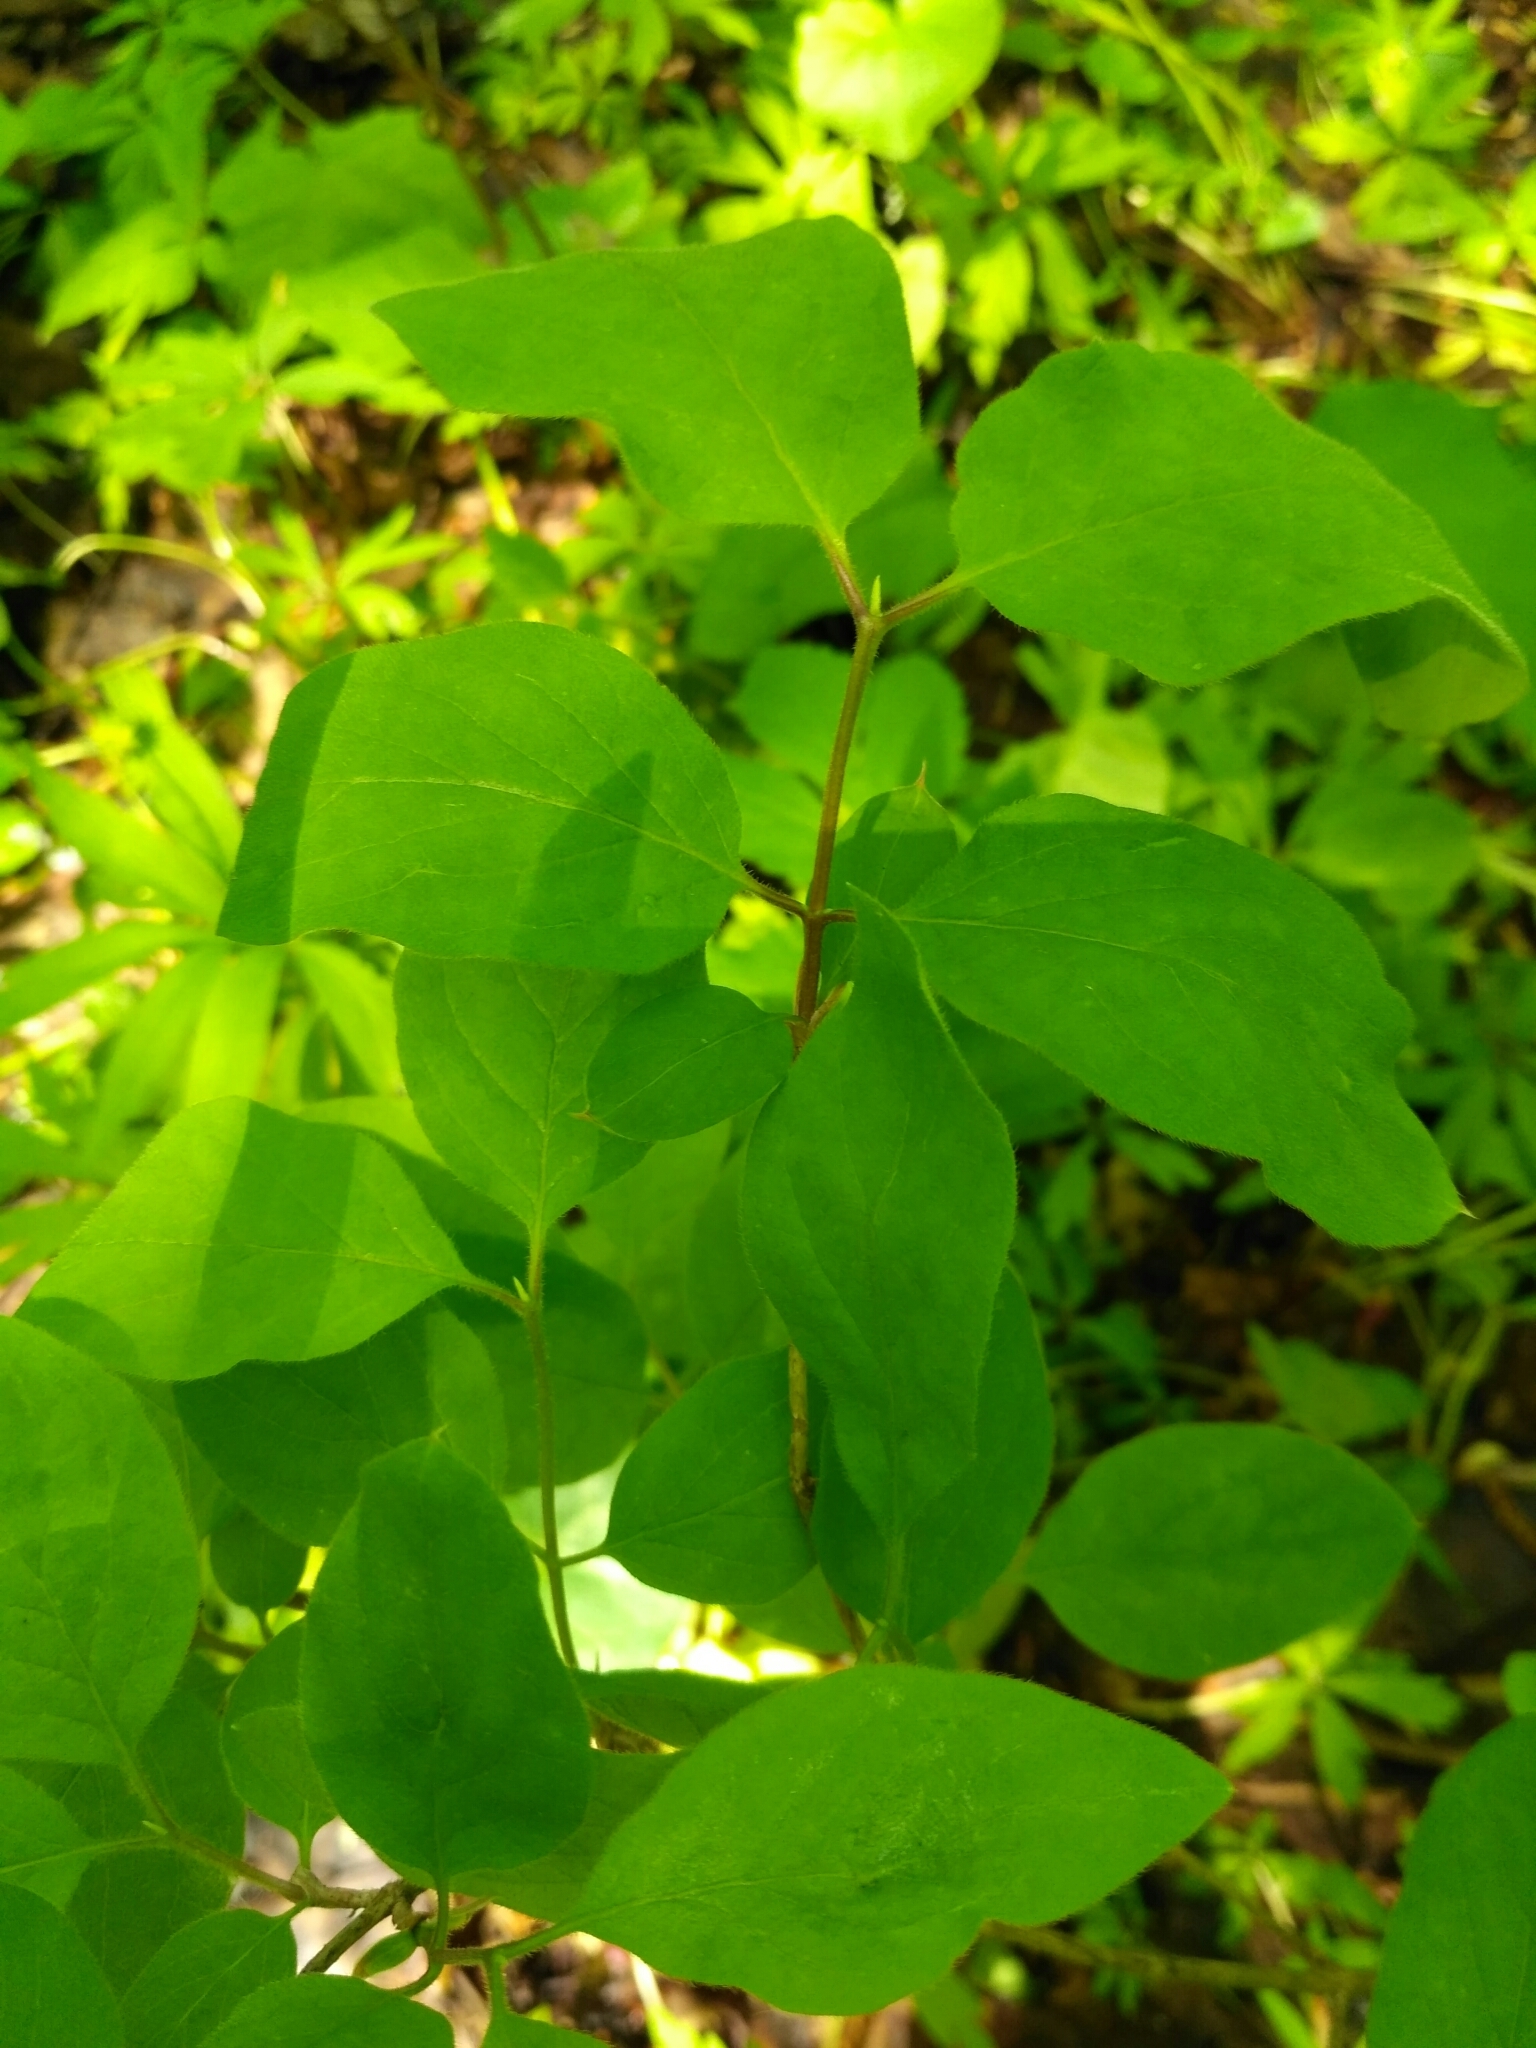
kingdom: Plantae
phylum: Tracheophyta
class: Magnoliopsida
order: Dipsacales
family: Caprifoliaceae
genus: Lonicera
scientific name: Lonicera xylosteum
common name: Fly honeysuckle
